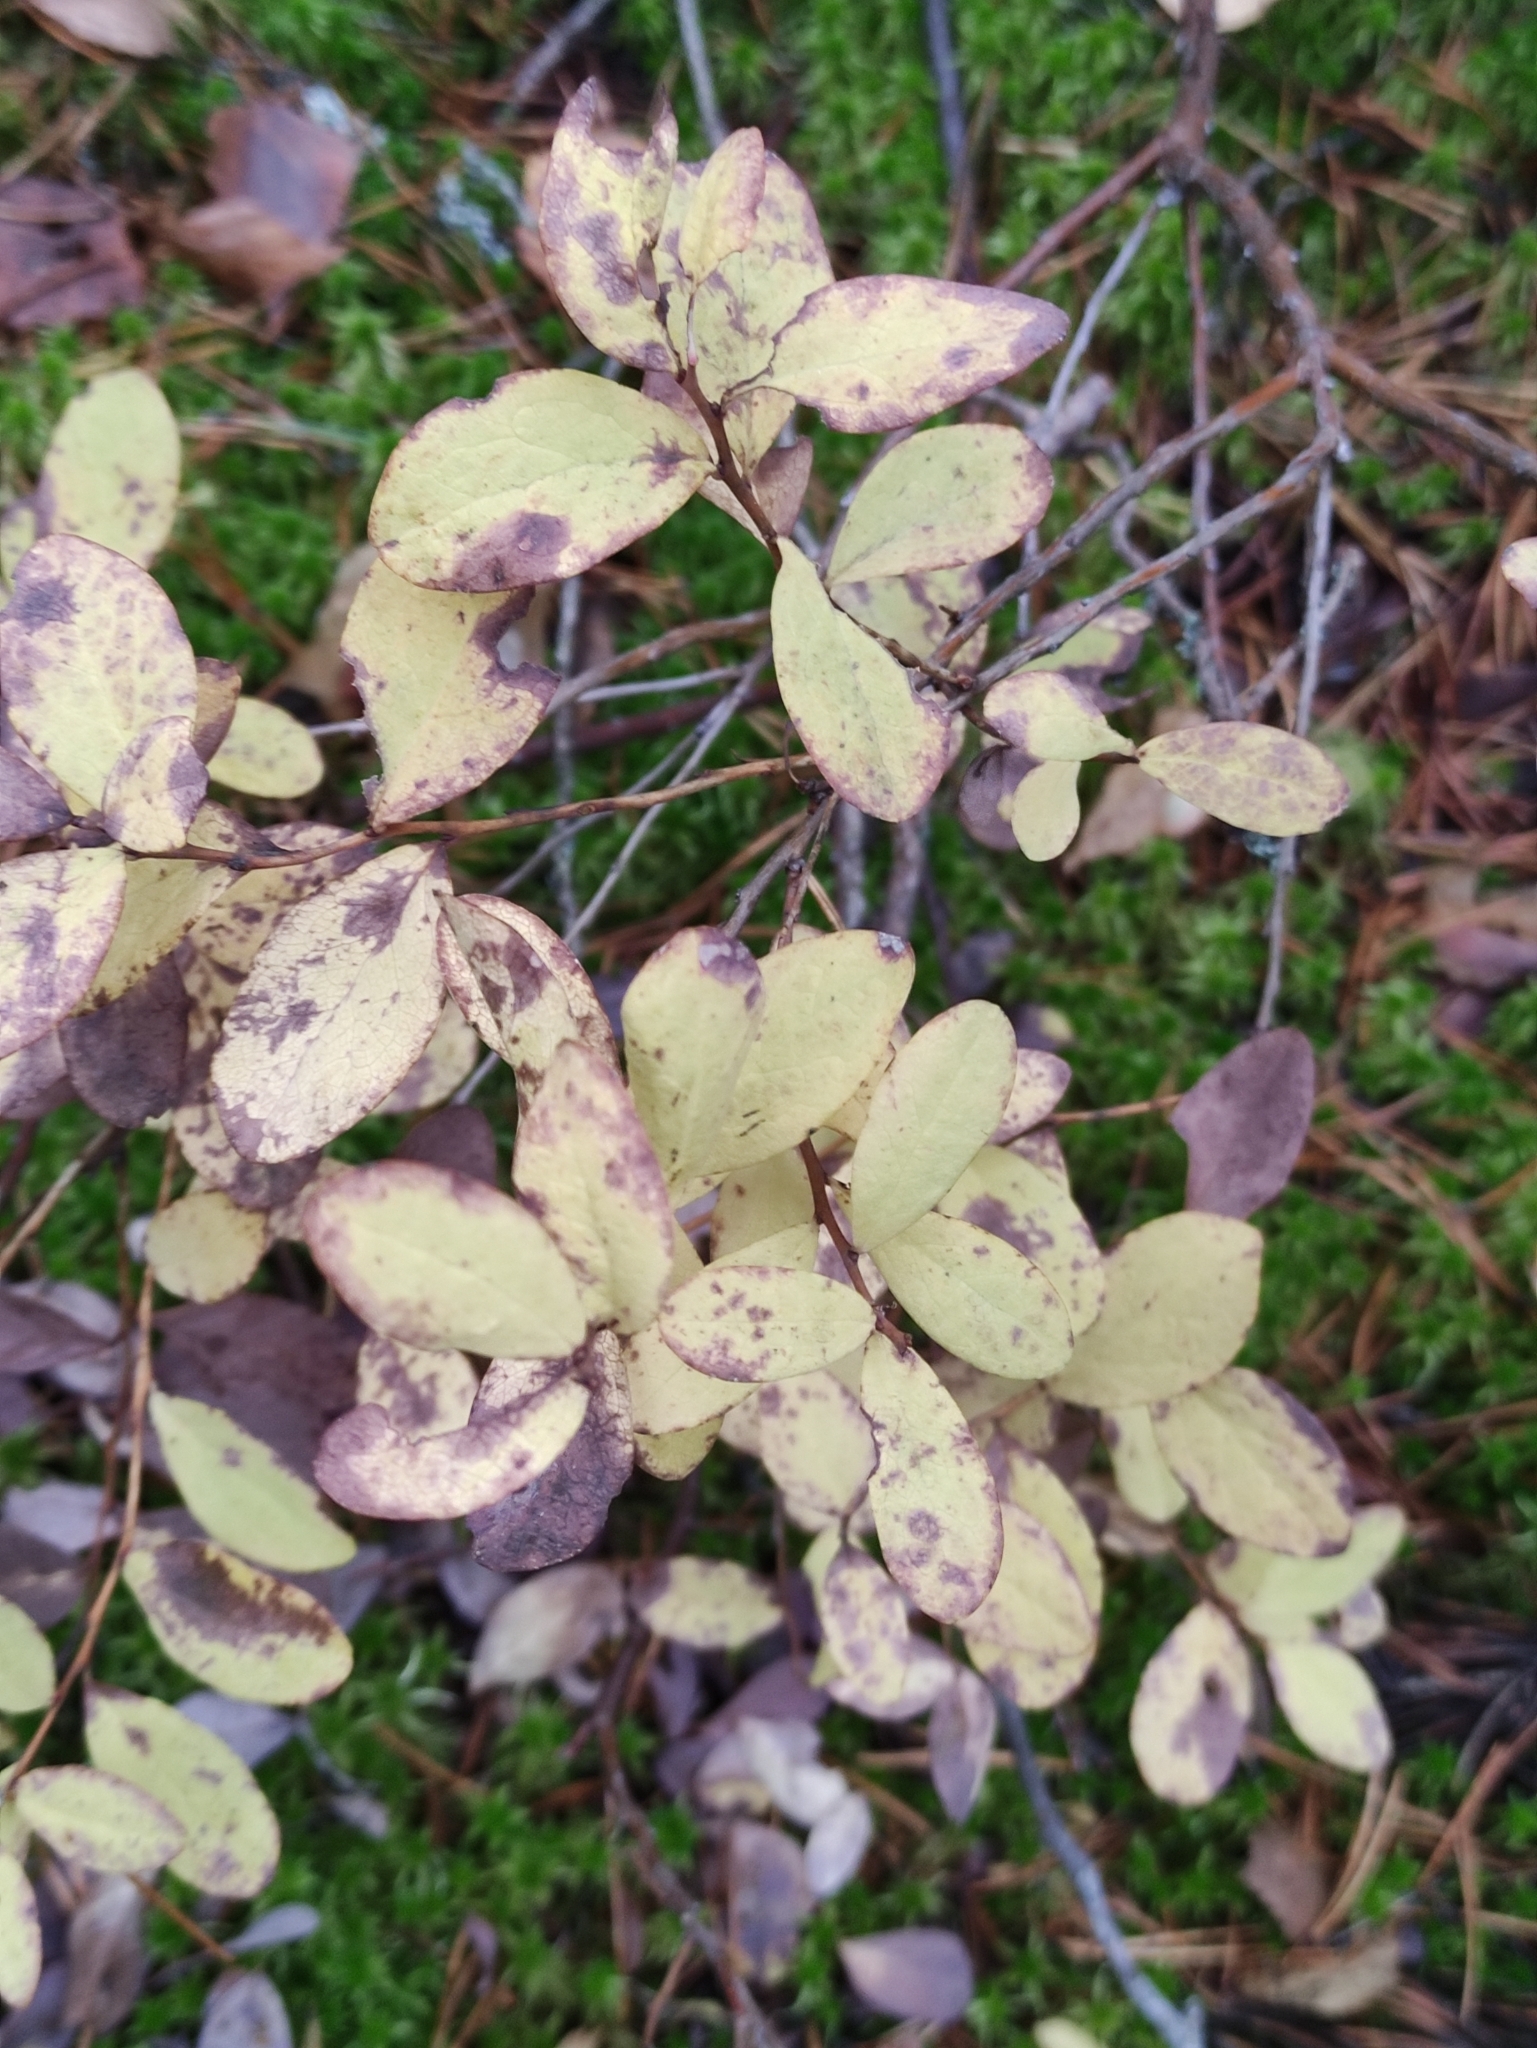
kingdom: Plantae
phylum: Tracheophyta
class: Magnoliopsida
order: Ericales
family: Ericaceae
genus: Vaccinium
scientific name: Vaccinium uliginosum
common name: Bog bilberry
